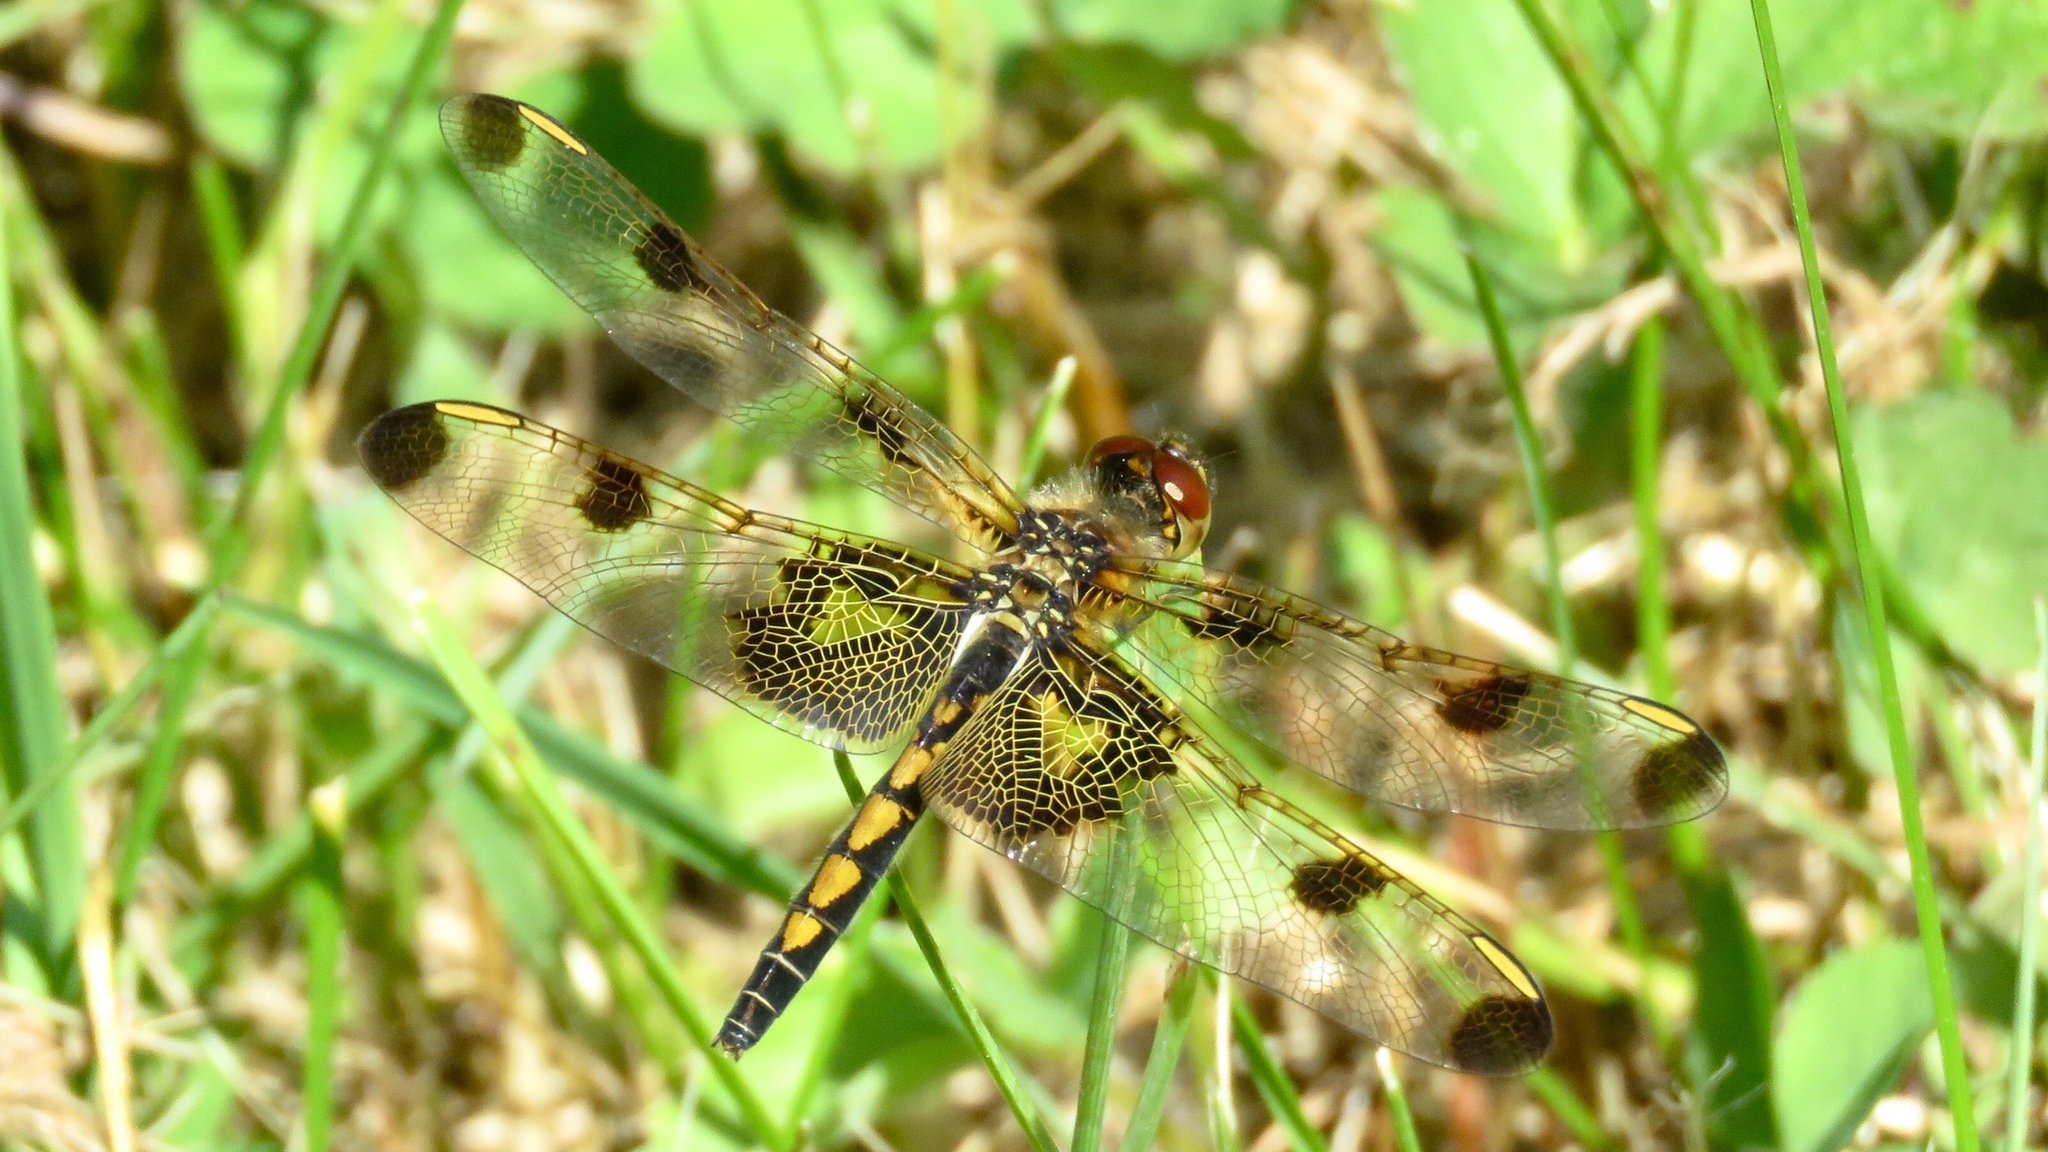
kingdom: Animalia
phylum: Arthropoda
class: Insecta
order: Odonata
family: Libellulidae
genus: Celithemis
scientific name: Celithemis elisa
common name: Calico pennant
